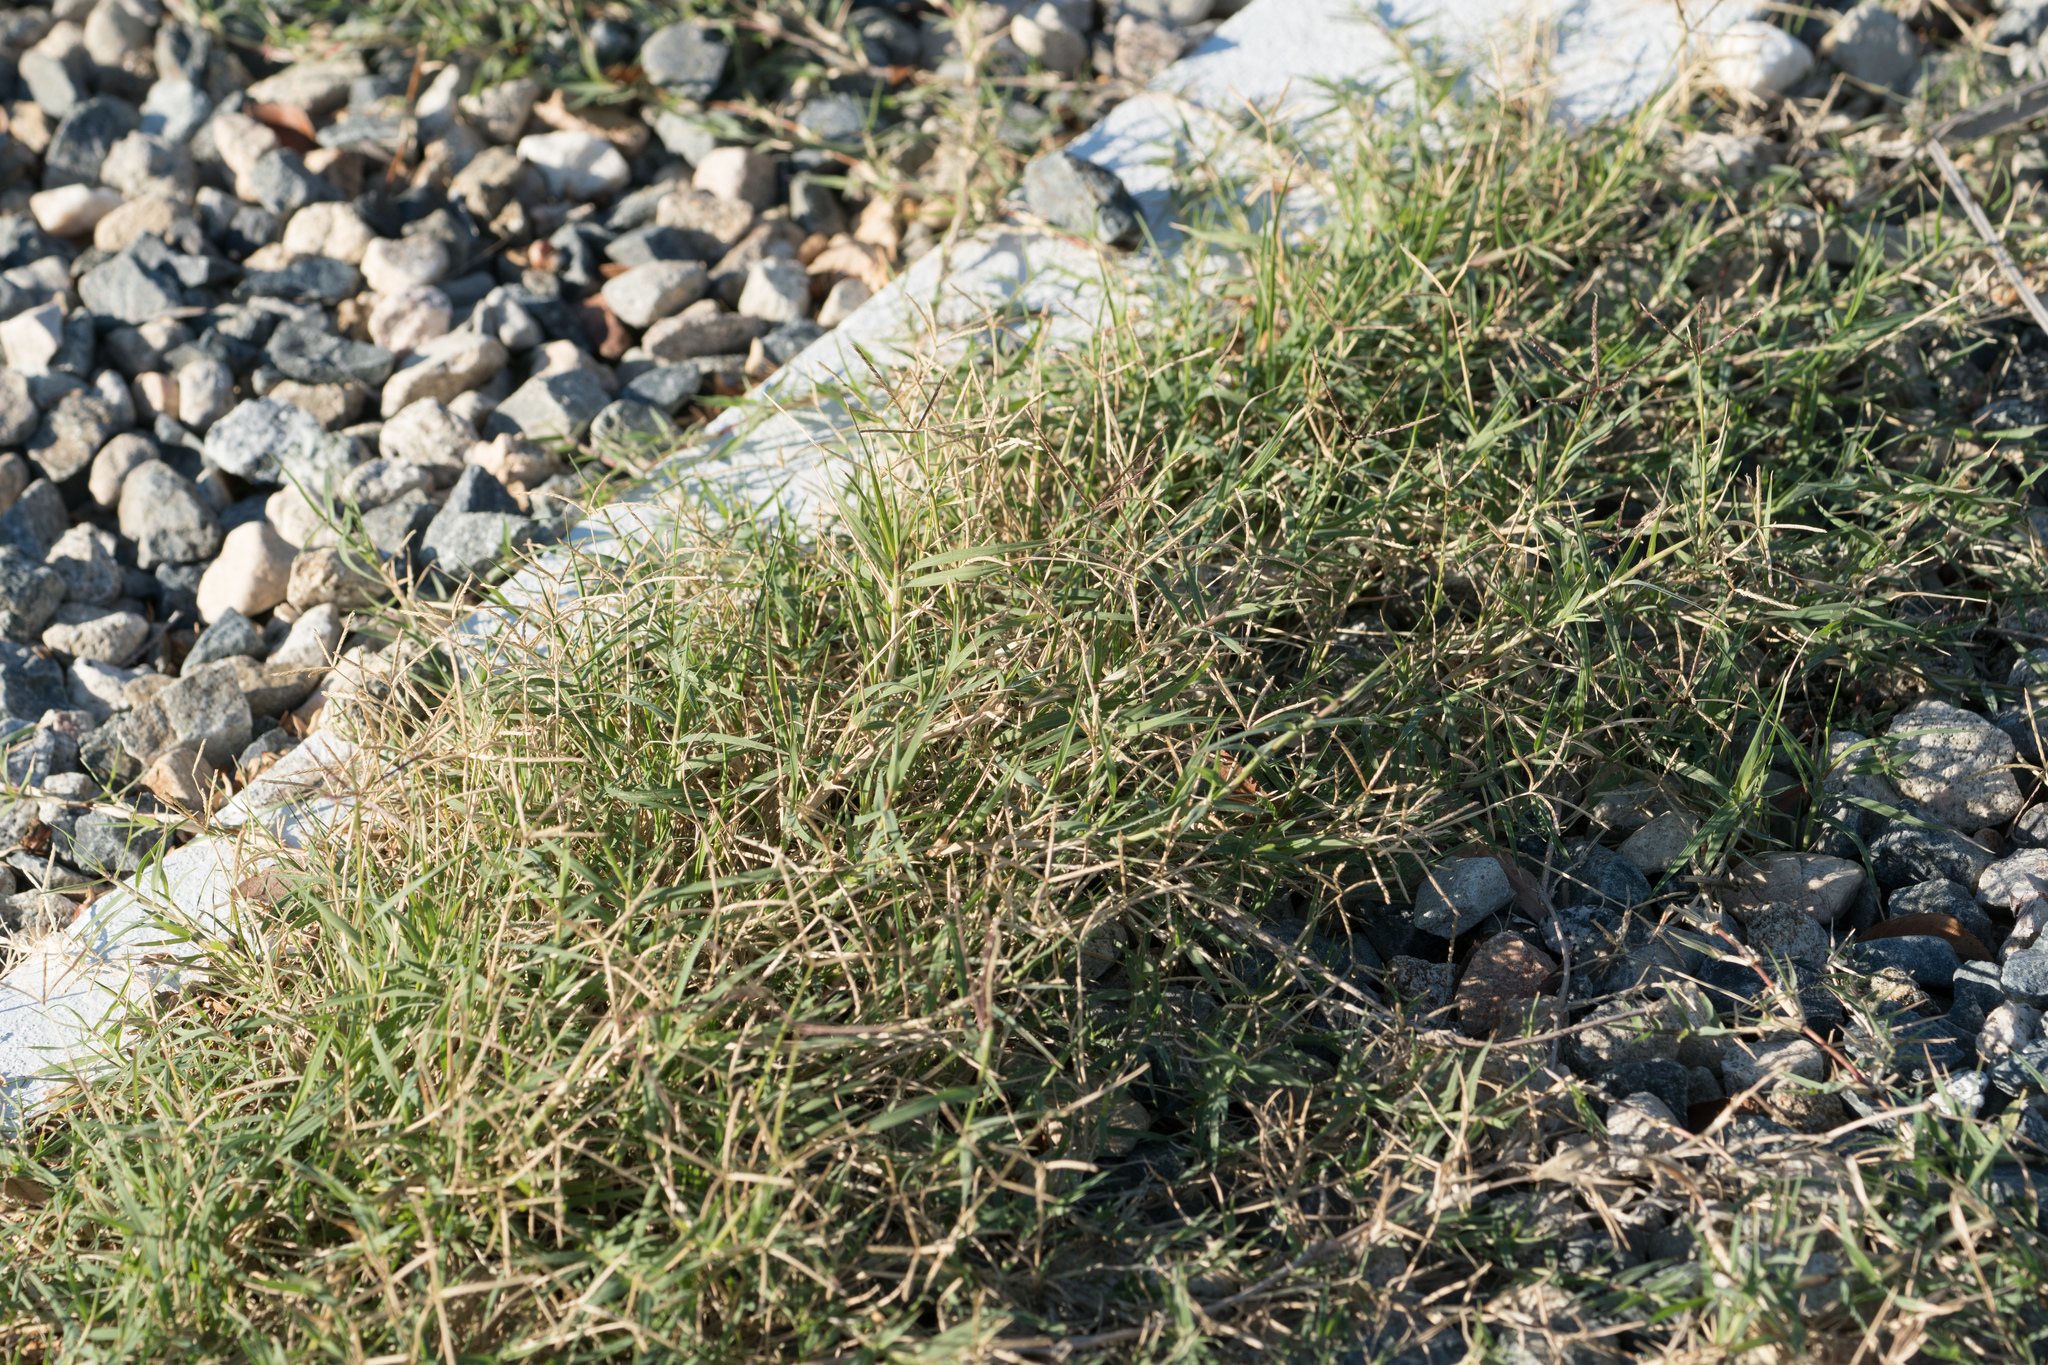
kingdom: Plantae
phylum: Tracheophyta
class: Liliopsida
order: Poales
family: Poaceae
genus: Cynodon
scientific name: Cynodon dactylon
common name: Bermuda grass
